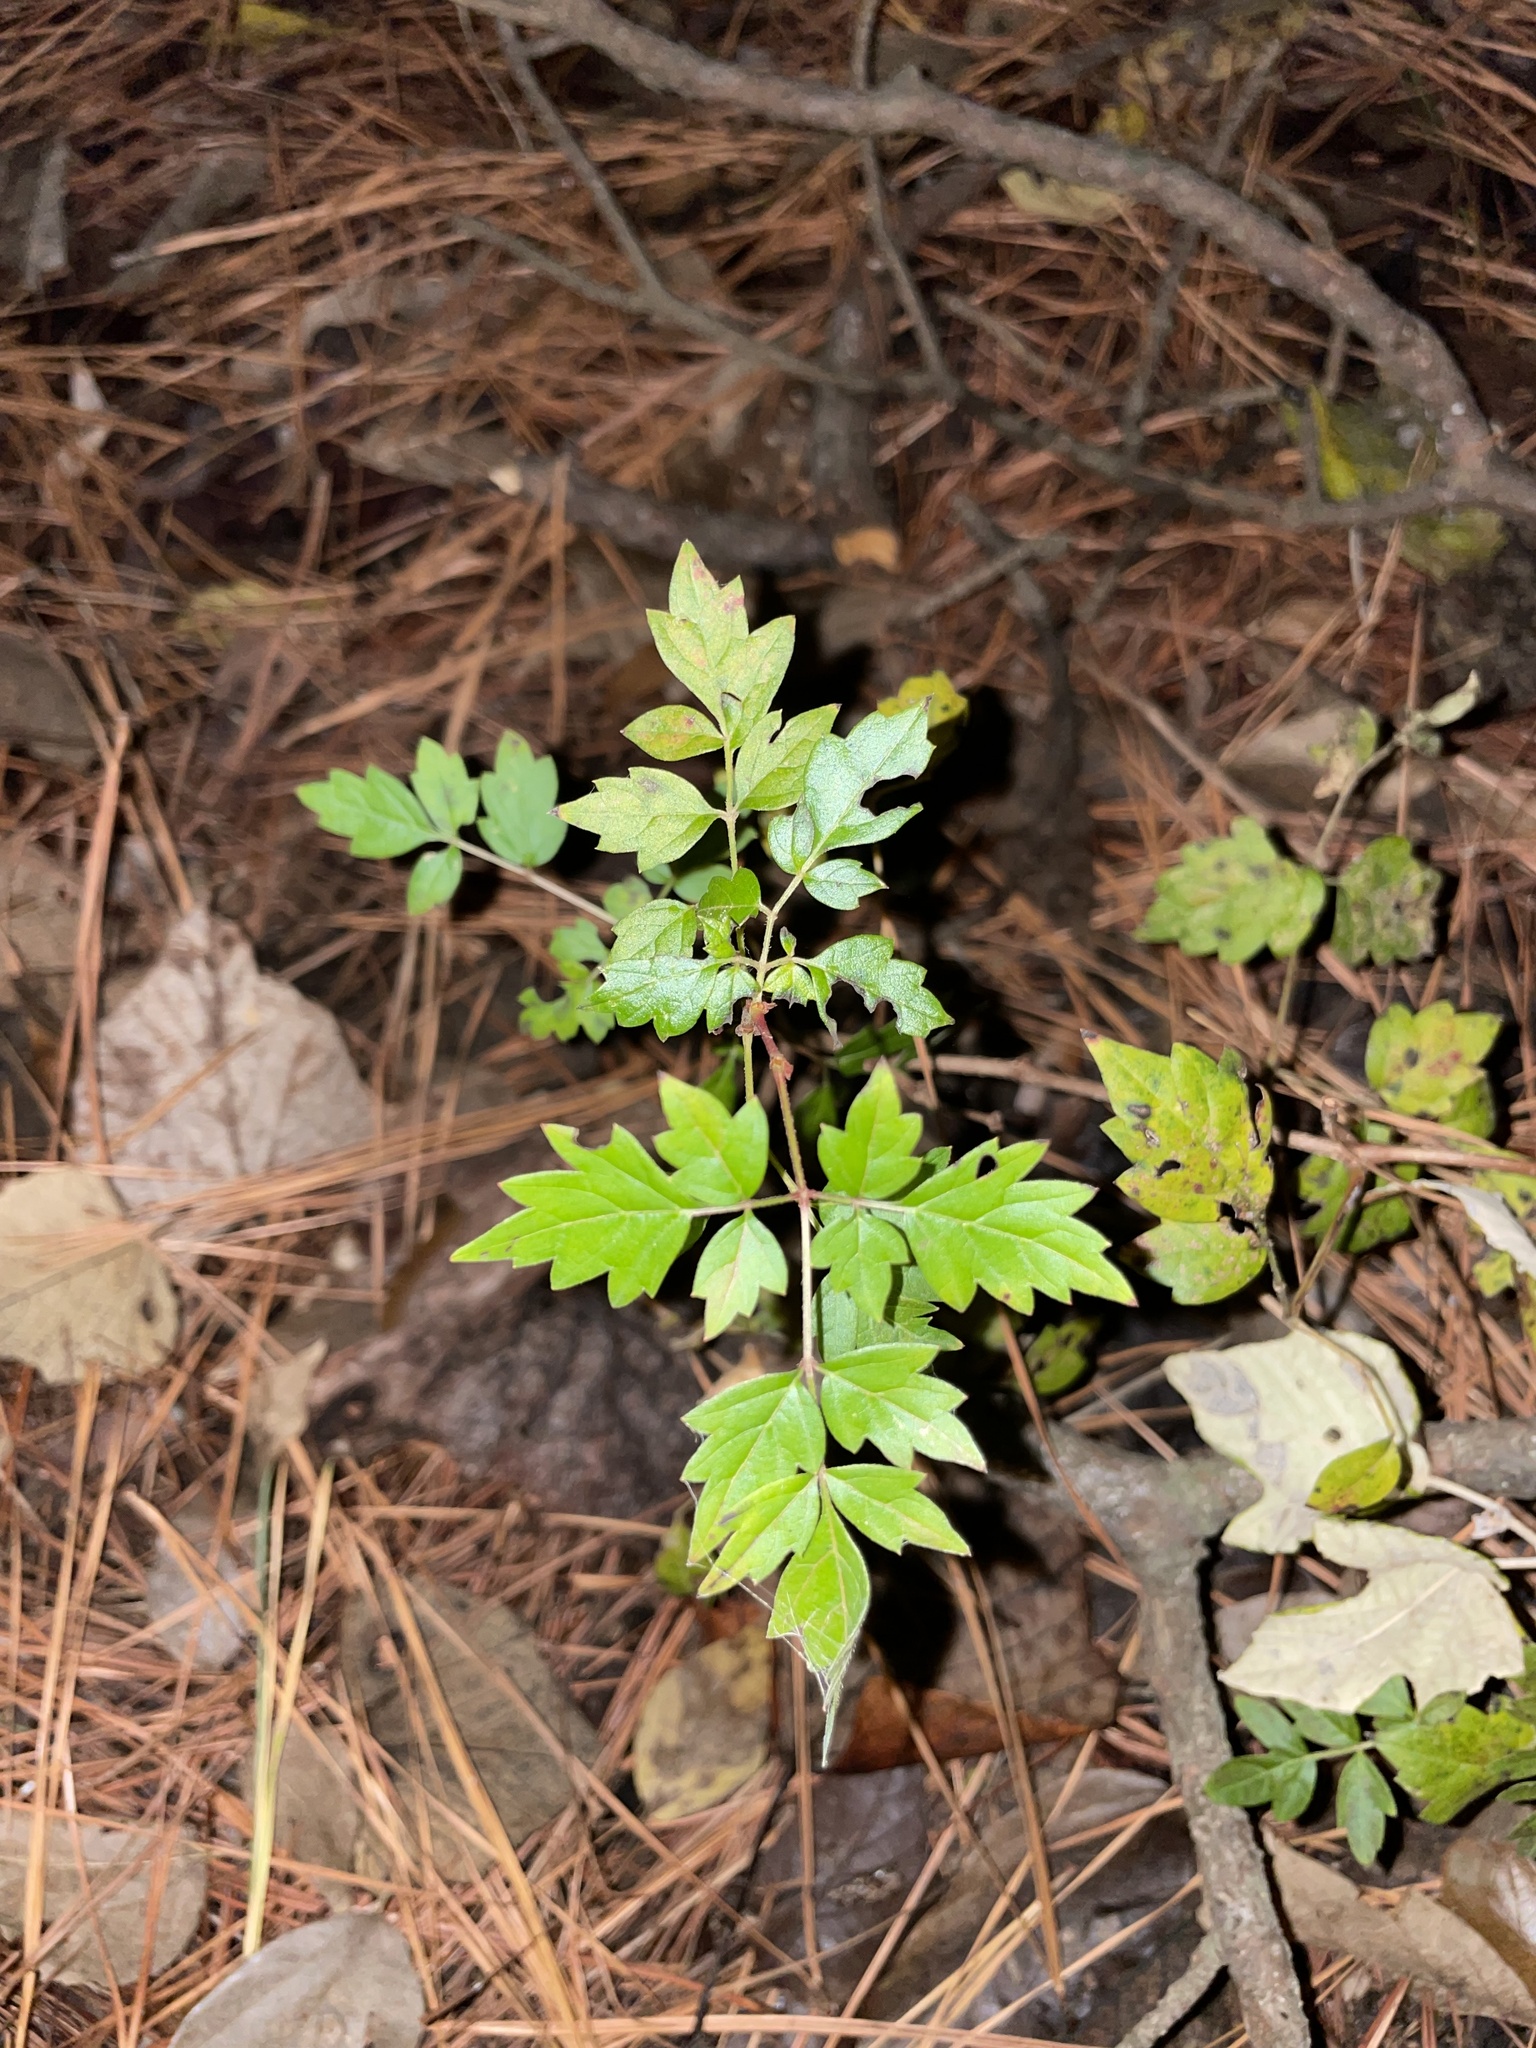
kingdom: Plantae
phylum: Tracheophyta
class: Magnoliopsida
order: Vitales
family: Vitaceae
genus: Nekemias
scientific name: Nekemias arborea
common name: Peppervine
